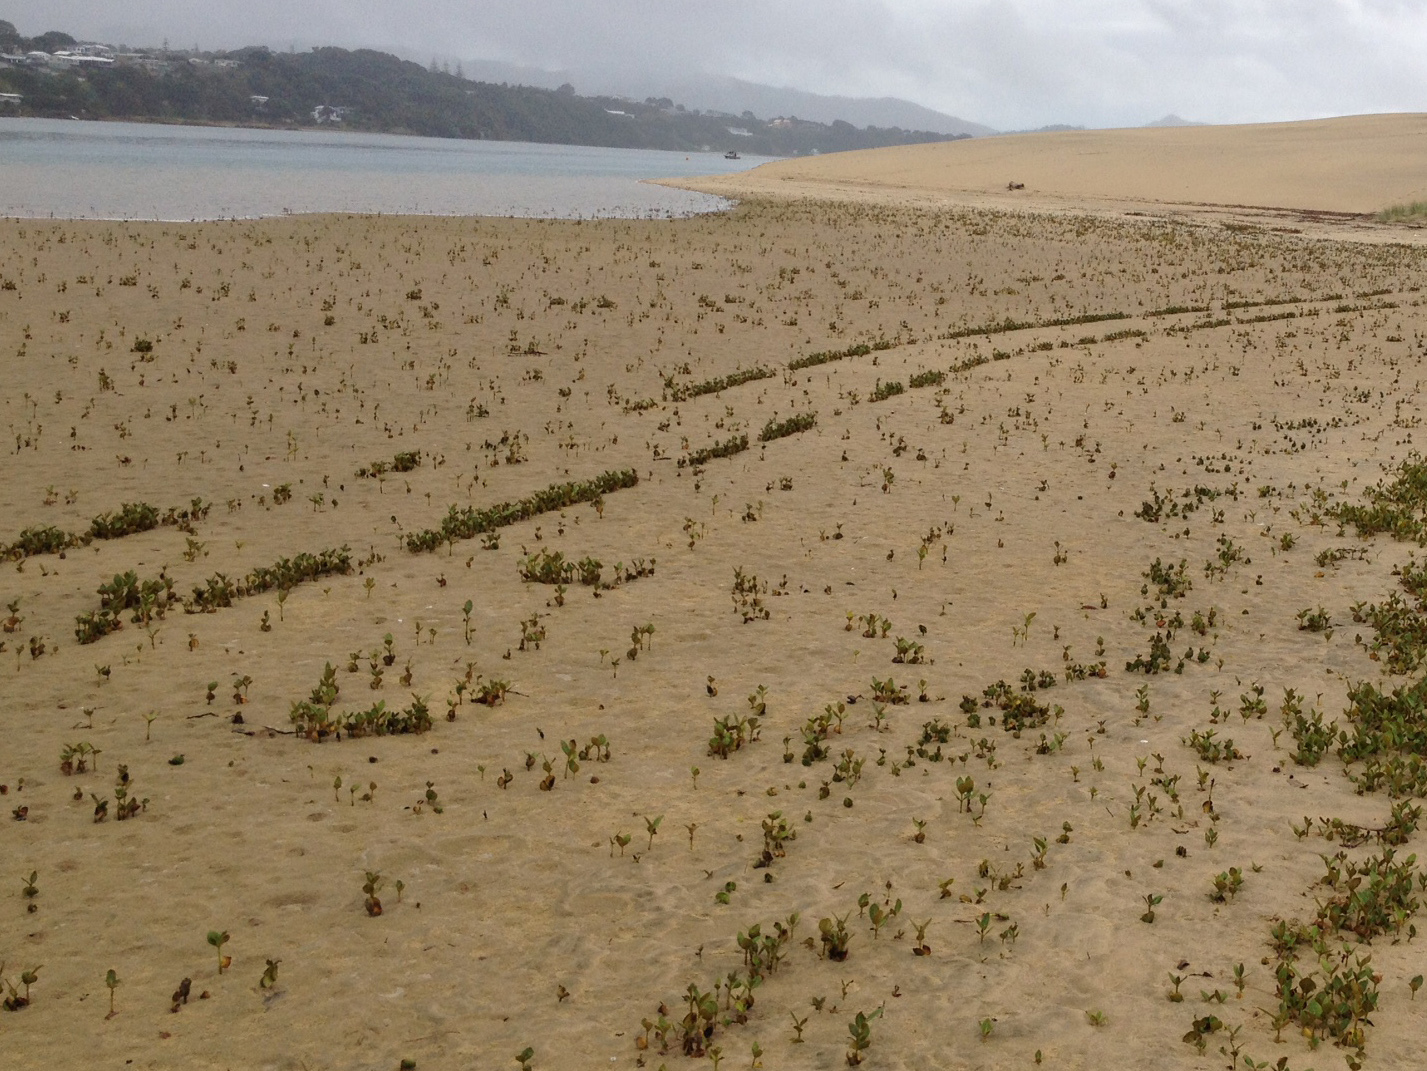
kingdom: Plantae
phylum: Tracheophyta
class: Magnoliopsida
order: Lamiales
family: Acanthaceae
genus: Avicennia
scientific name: Avicennia marina
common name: Gray mangrove
